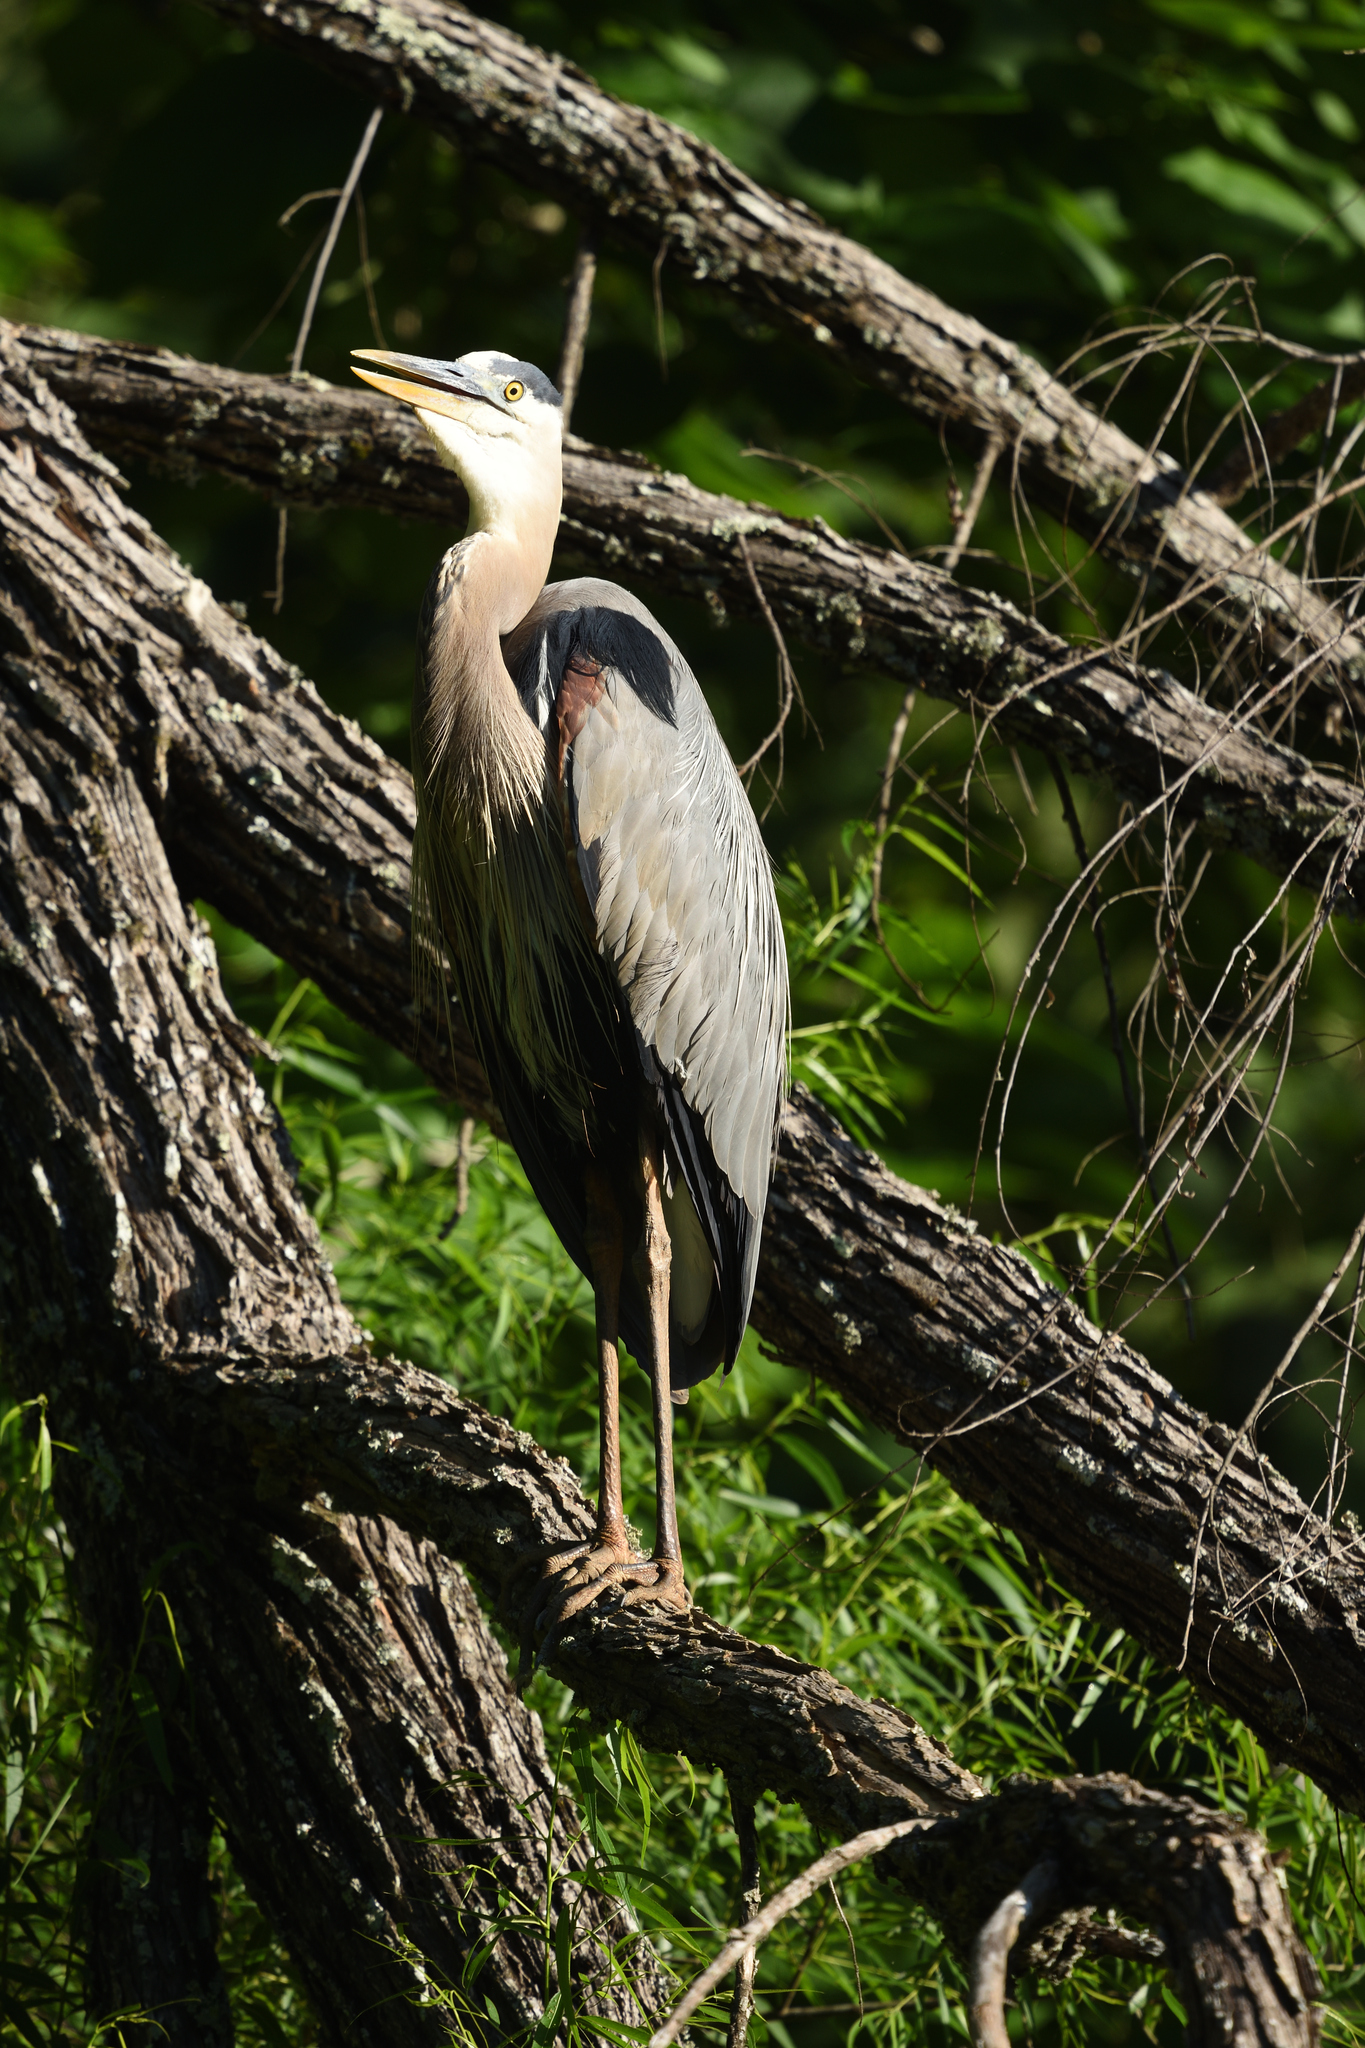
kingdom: Animalia
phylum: Chordata
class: Aves
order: Pelecaniformes
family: Ardeidae
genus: Ardea
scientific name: Ardea herodias
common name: Great blue heron
